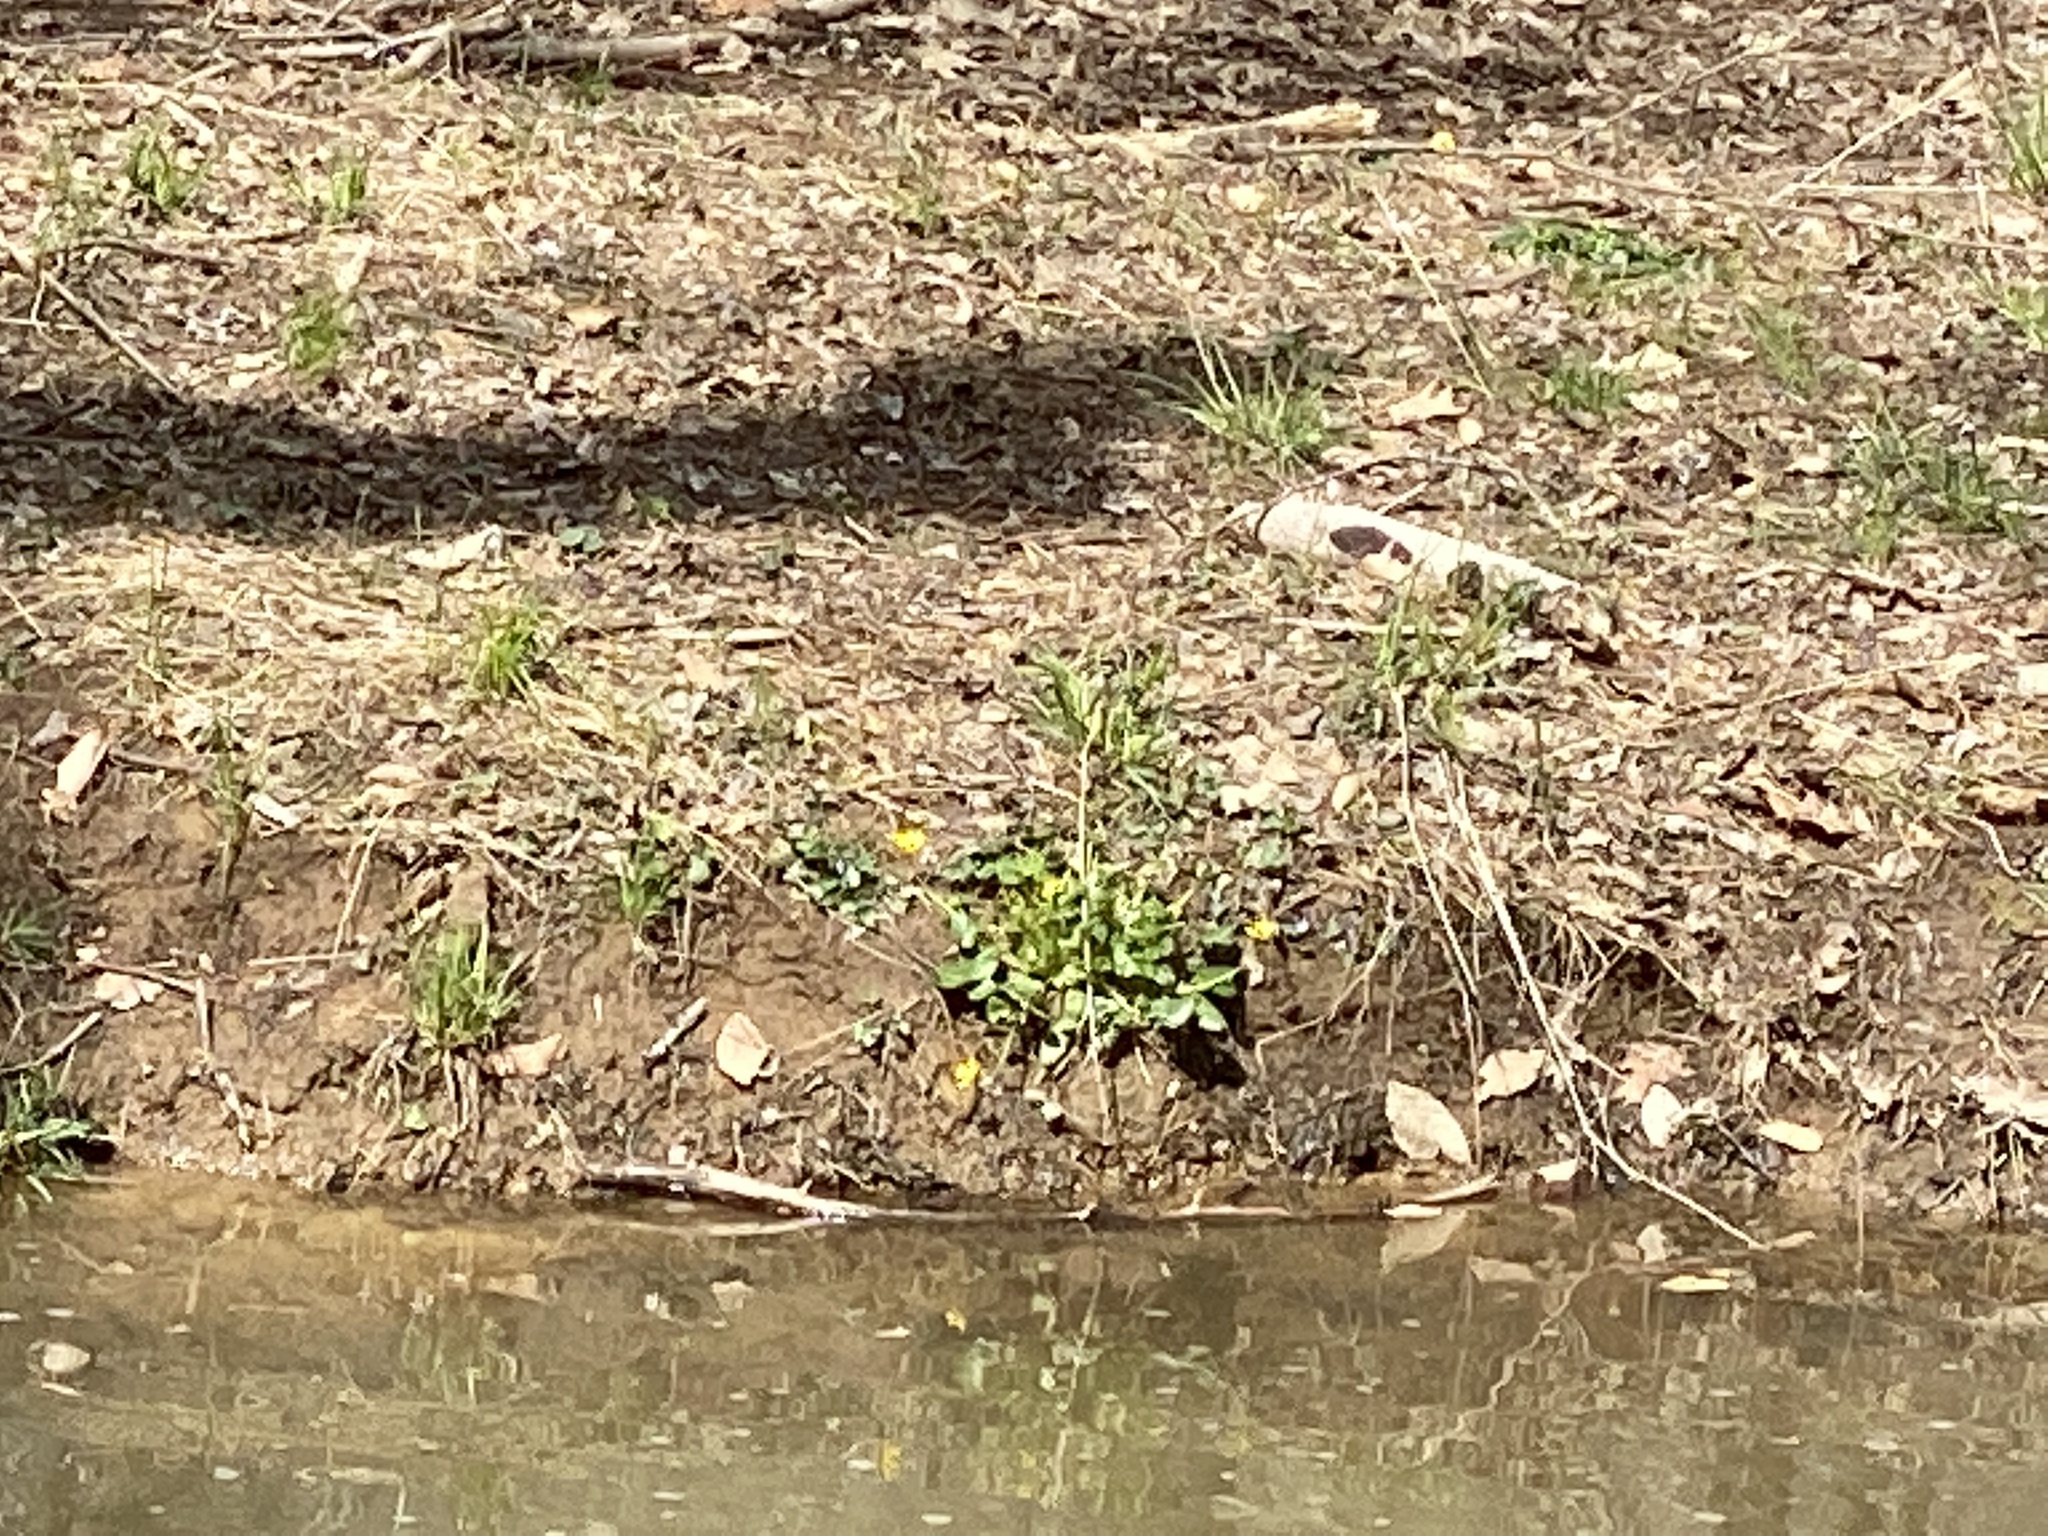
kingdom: Plantae
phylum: Tracheophyta
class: Magnoliopsida
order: Ranunculales
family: Ranunculaceae
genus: Ficaria
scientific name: Ficaria verna
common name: Lesser celandine
